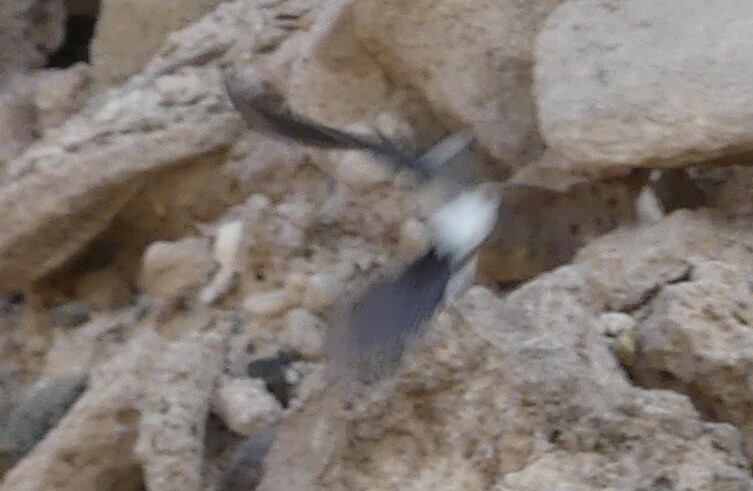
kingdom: Animalia
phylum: Chordata
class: Aves
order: Passeriformes
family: Muscicapidae
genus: Oenanthe
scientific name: Oenanthe deserti
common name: Desert wheatear
